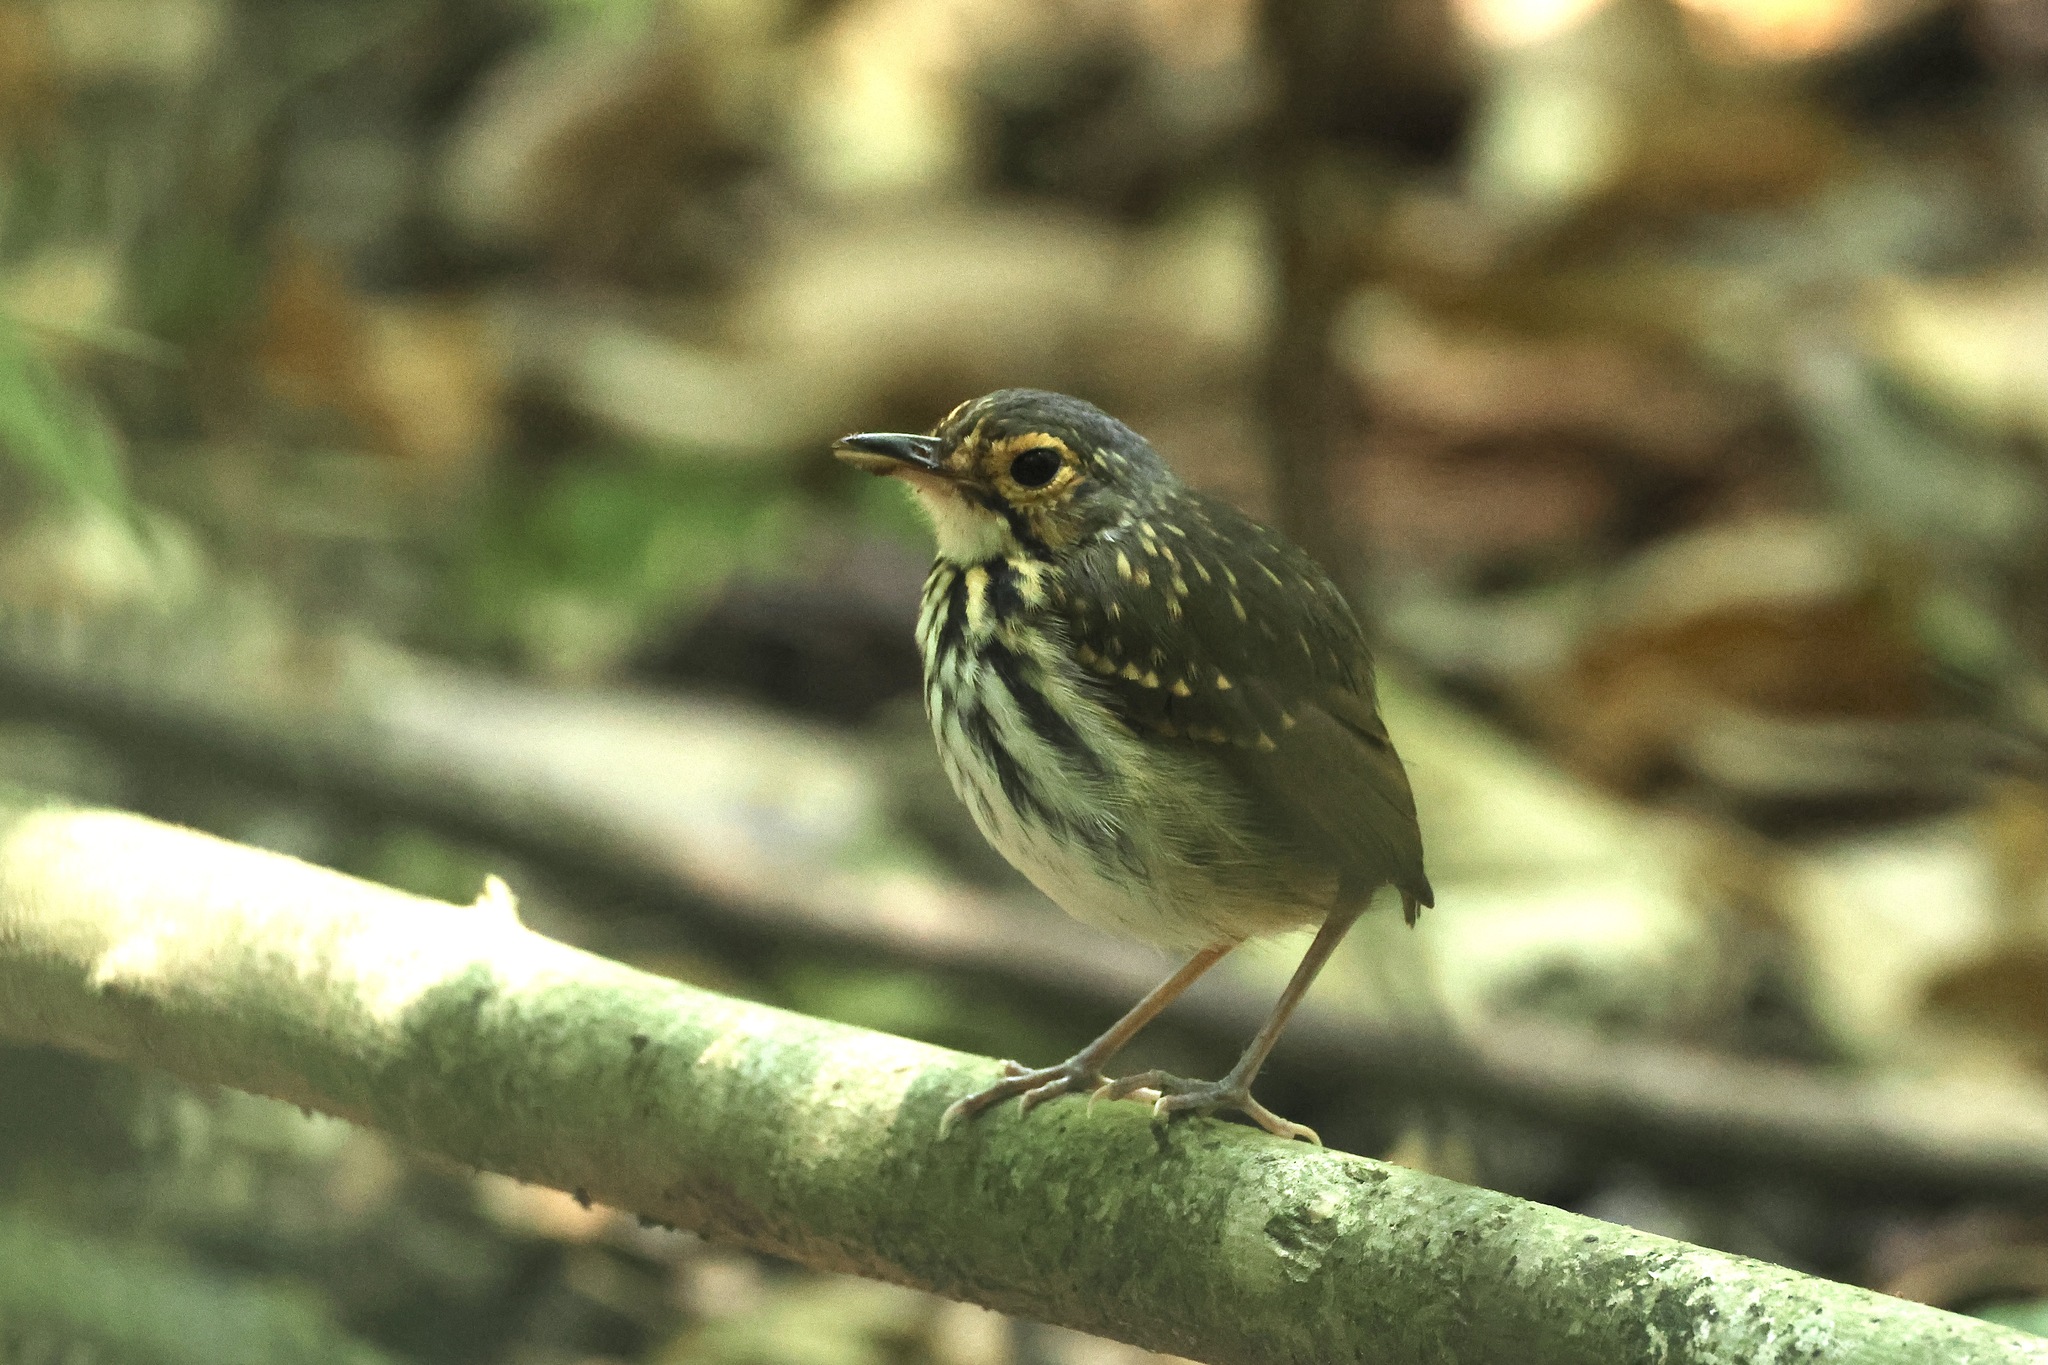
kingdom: Animalia
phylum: Chordata
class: Aves
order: Passeriformes
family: Grallariidae
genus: Hylopezus
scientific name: Hylopezus perspicillatus
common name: Streak-chested antpitta
